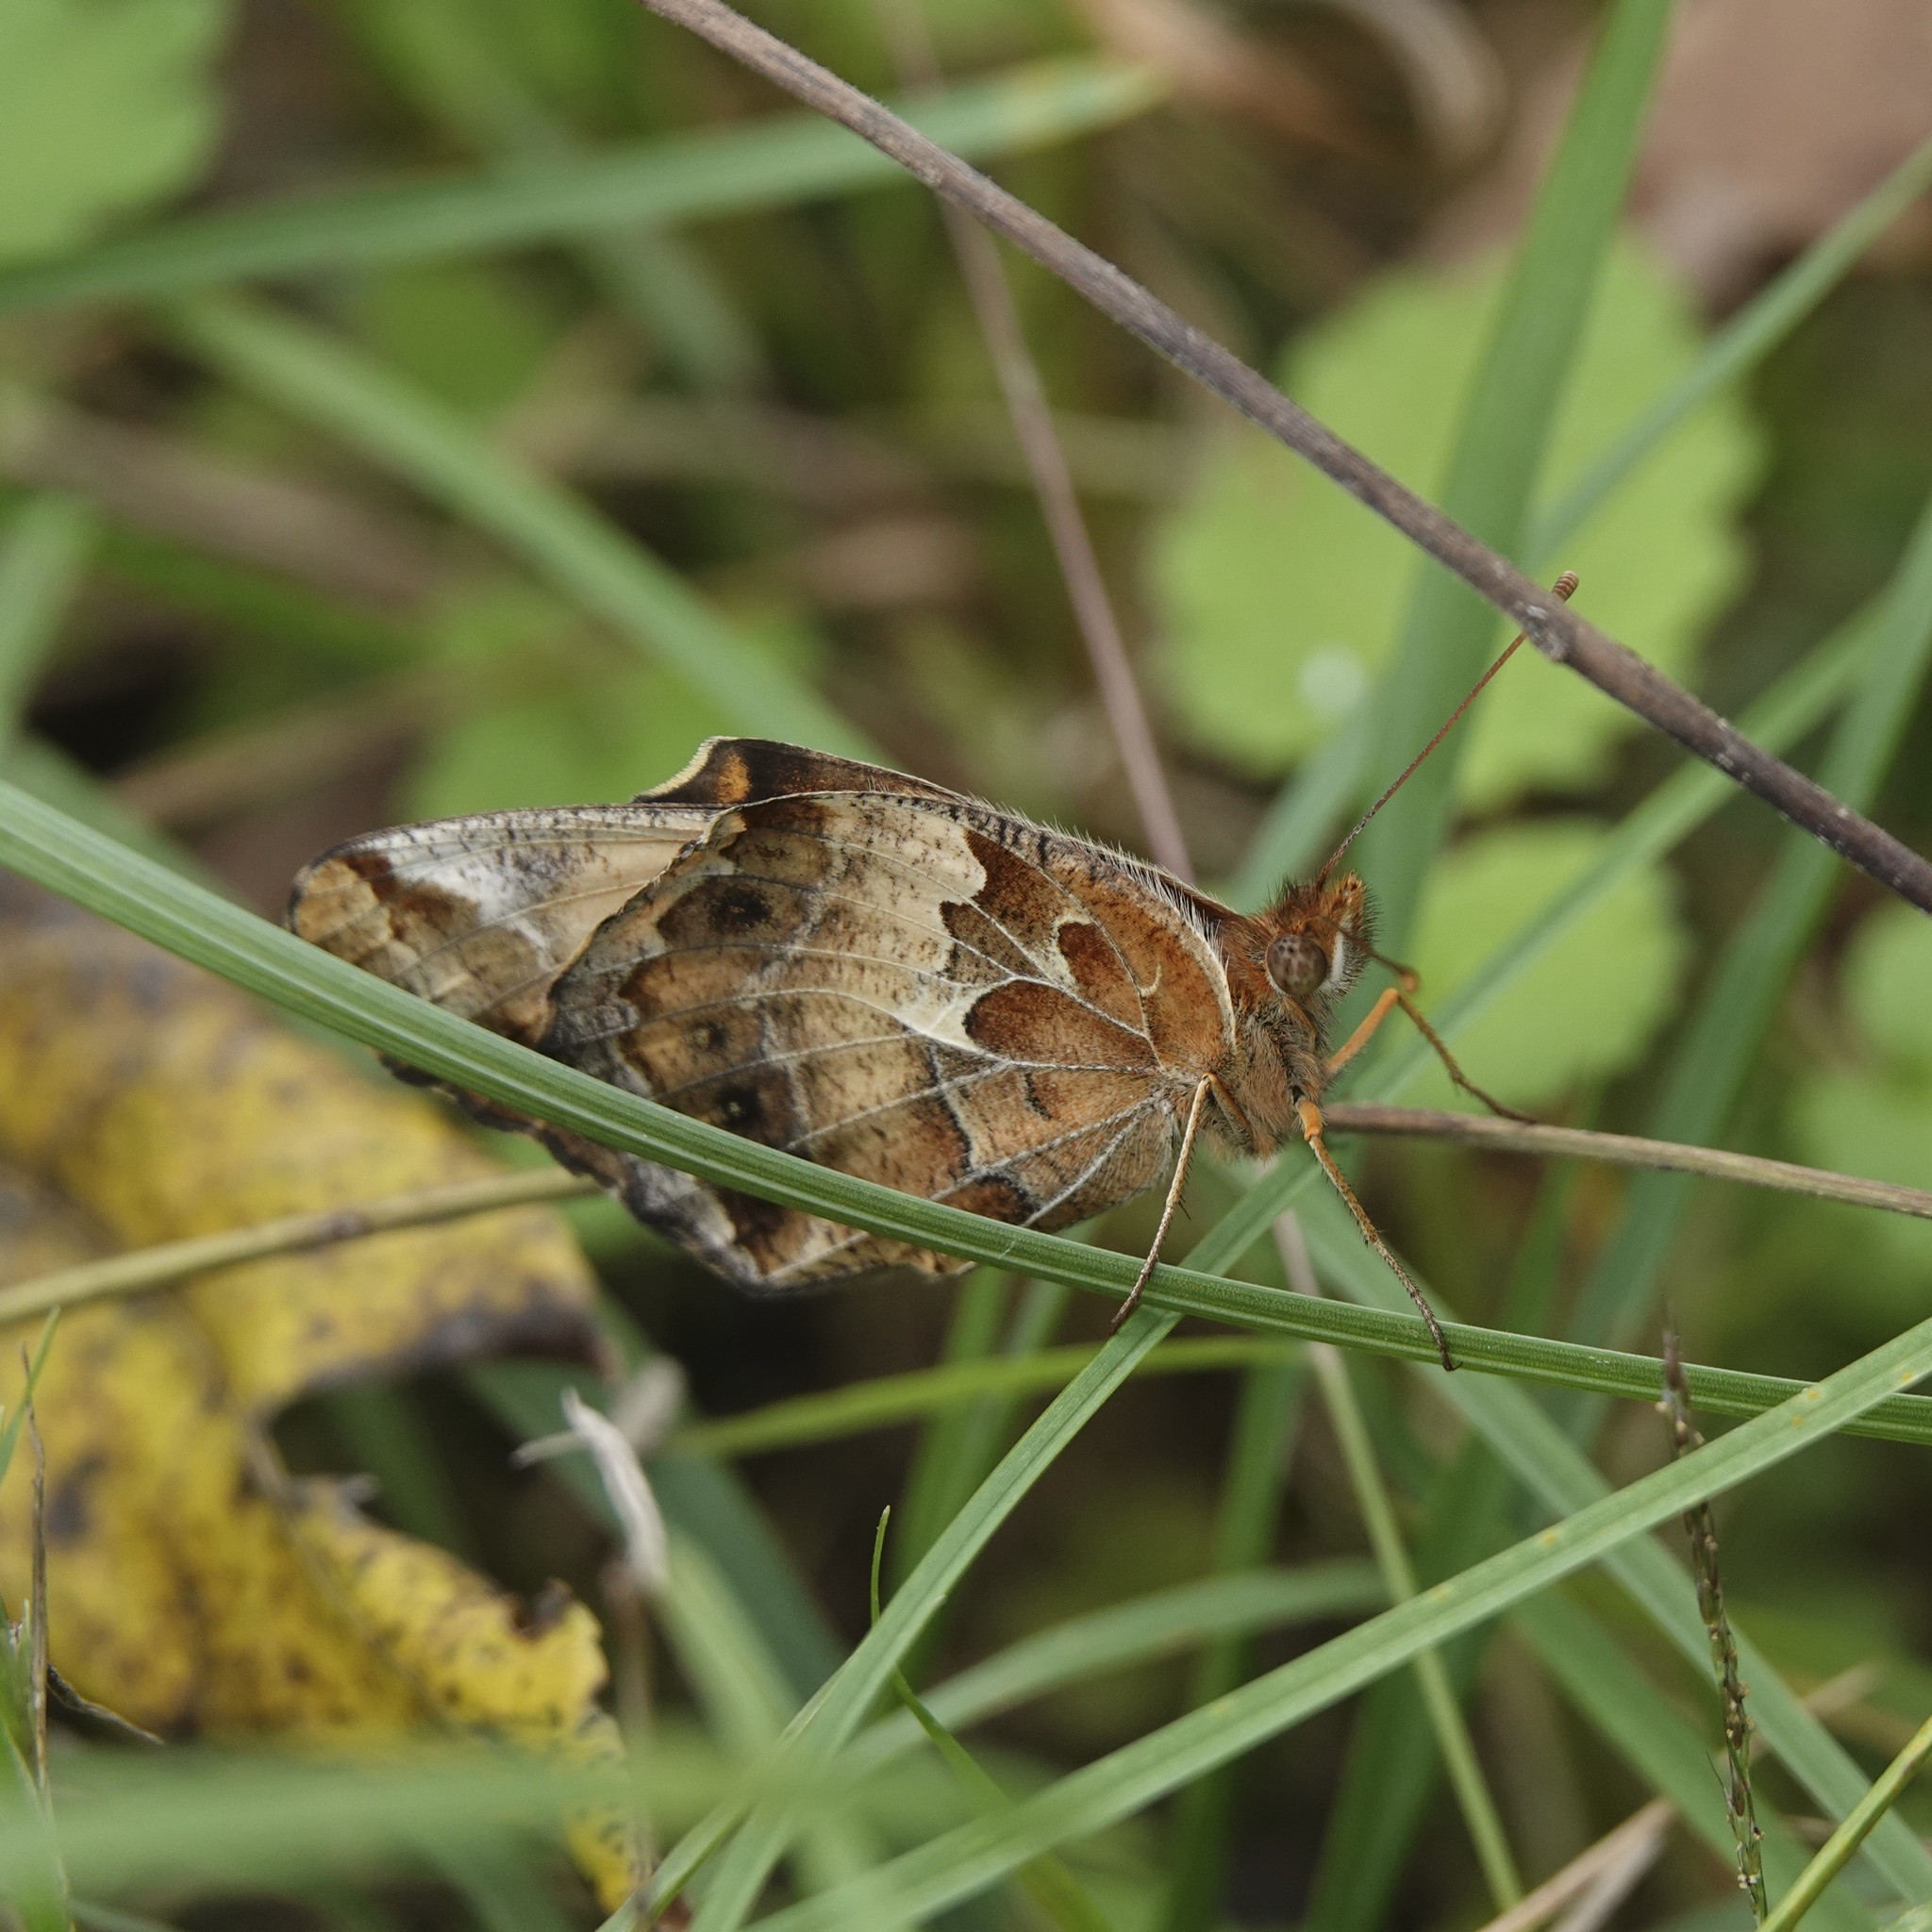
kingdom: Animalia
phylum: Arthropoda
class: Insecta
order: Lepidoptera
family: Nymphalidae
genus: Euptoieta
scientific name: Euptoieta claudia
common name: Variegated fritillary
